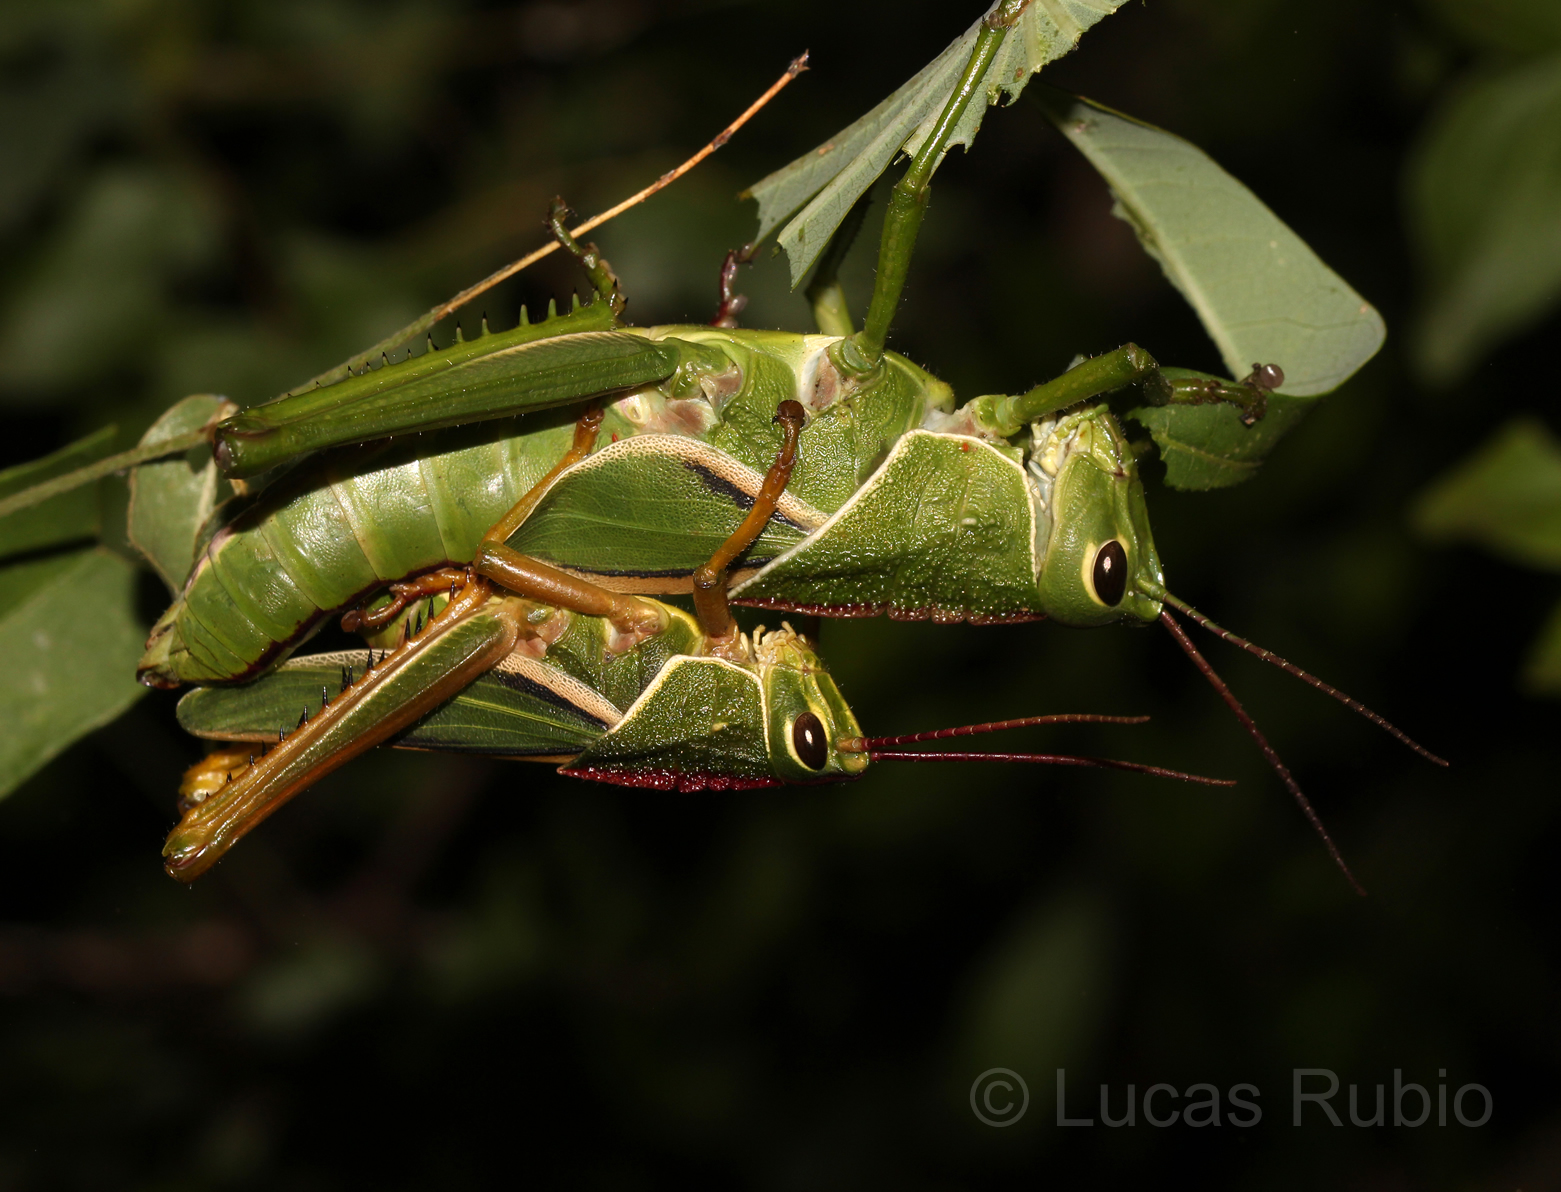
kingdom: Animalia
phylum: Arthropoda
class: Insecta
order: Orthoptera
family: Romaleidae
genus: Staleochlora
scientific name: Staleochlora arcuata
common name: Paraná purple-backed grasshopper
